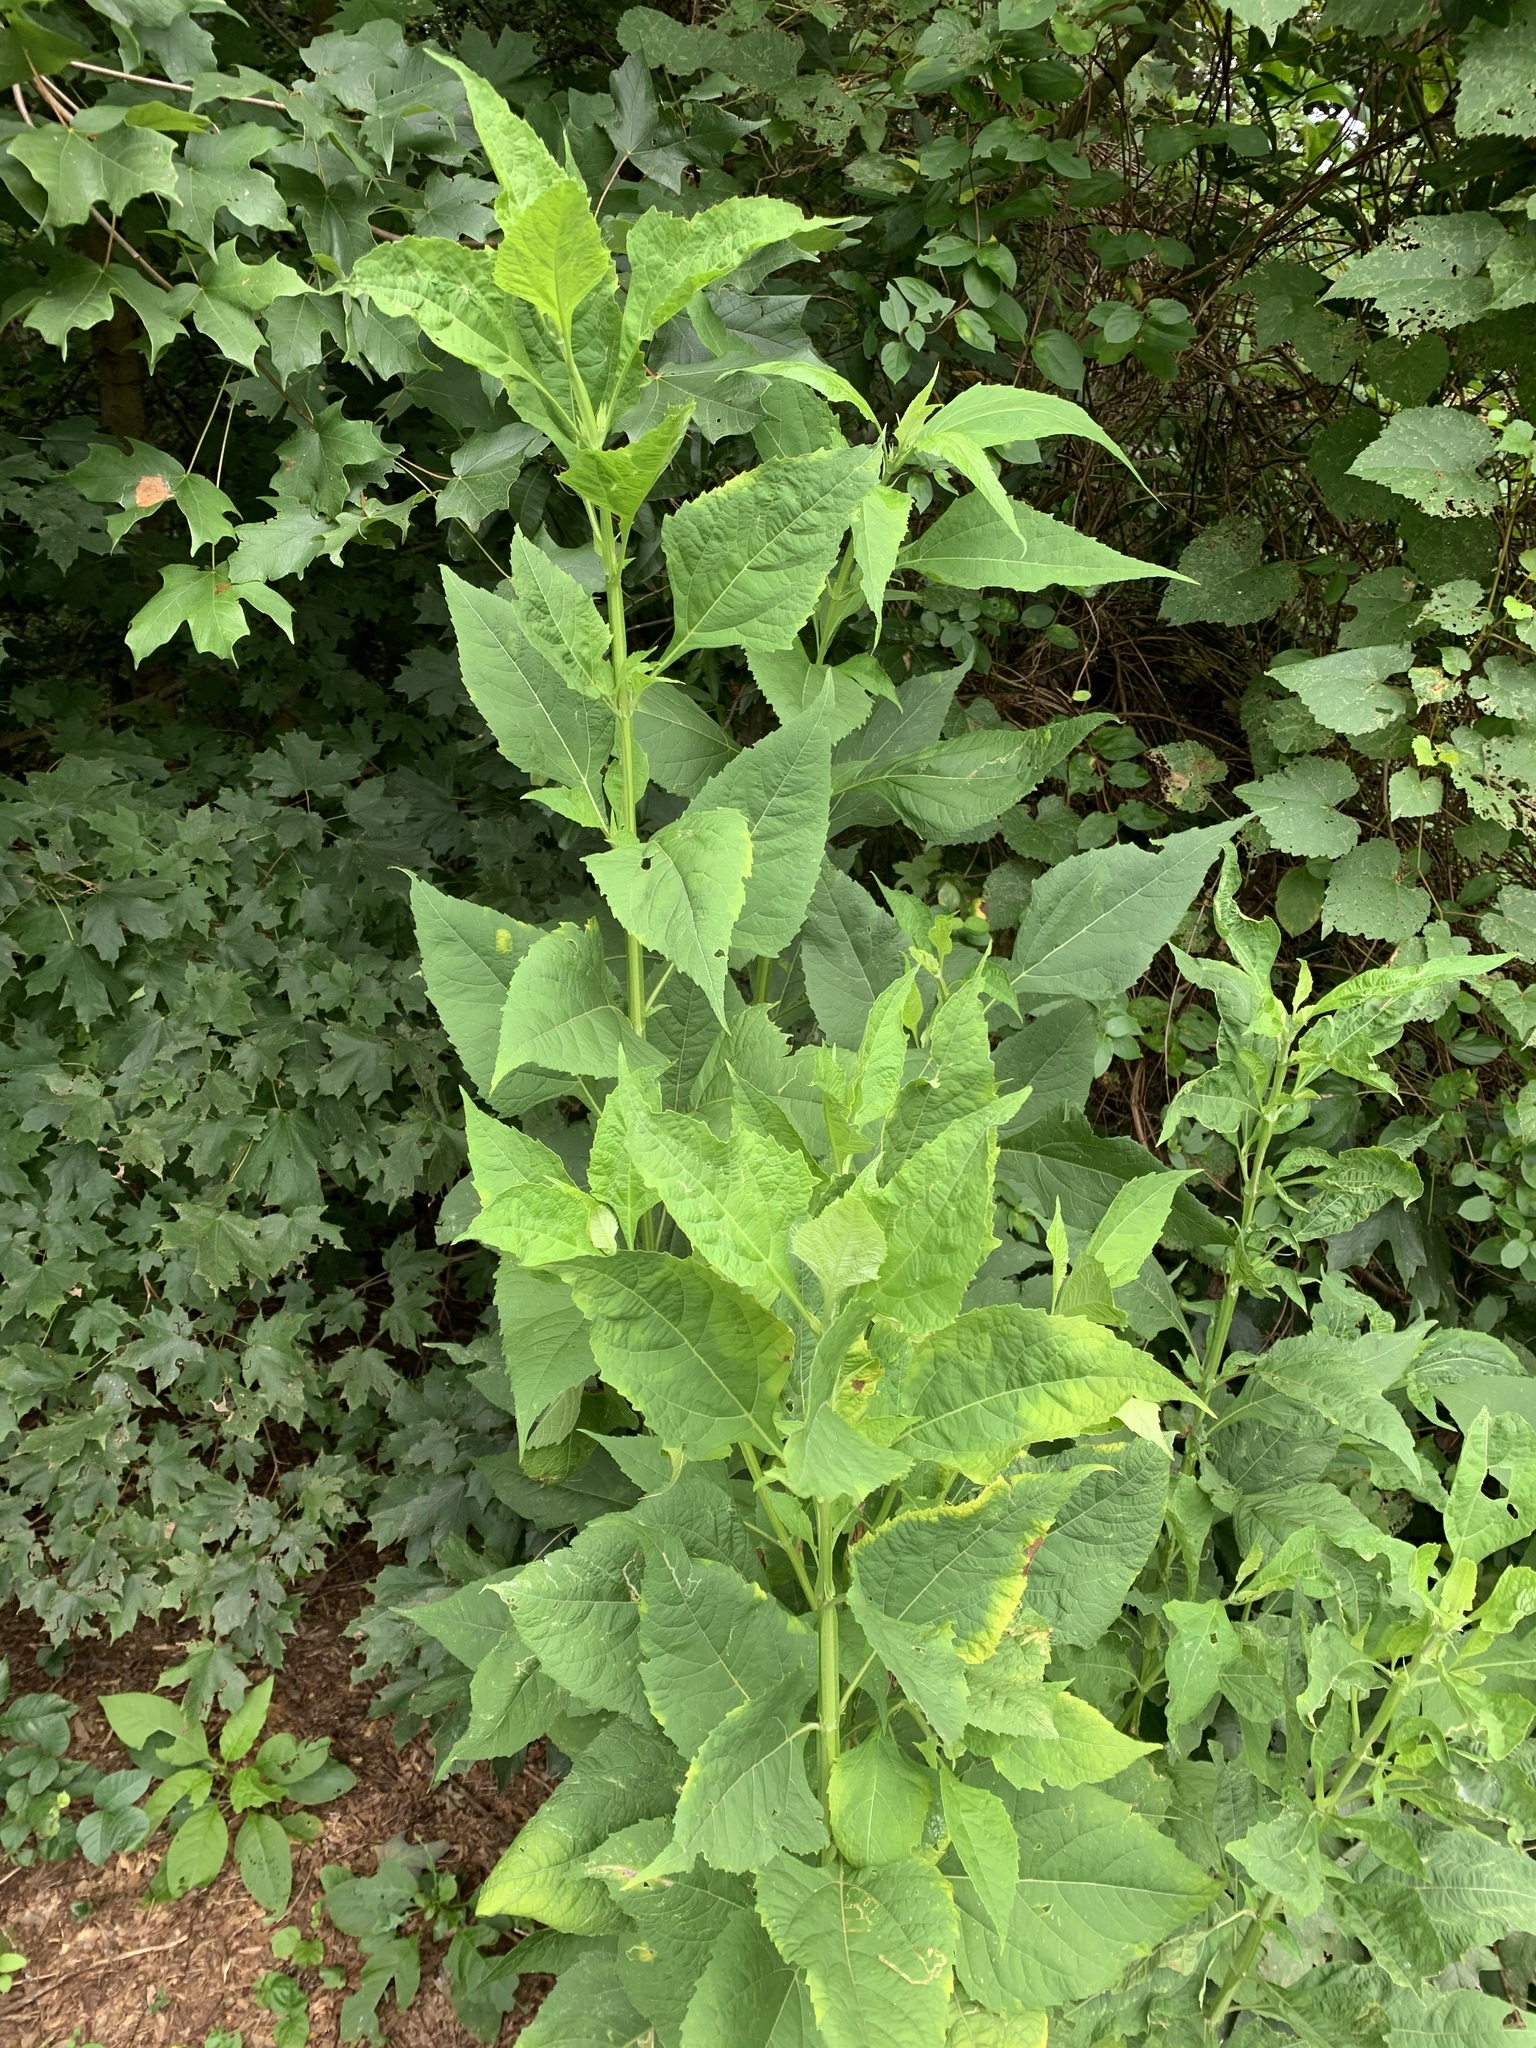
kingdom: Plantae
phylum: Tracheophyta
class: Magnoliopsida
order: Asterales
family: Asteraceae
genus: Verbesina
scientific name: Verbesina occidentalis
